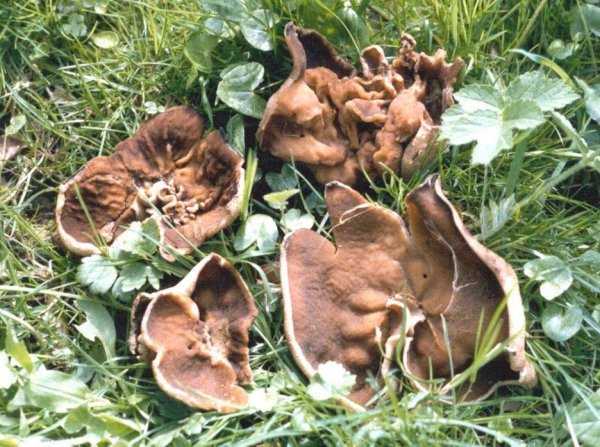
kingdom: Fungi
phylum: Ascomycota
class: Pezizomycetes
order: Pezizales
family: Morchellaceae
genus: Disciotis
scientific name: Disciotis venosa
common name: Bleach cup
